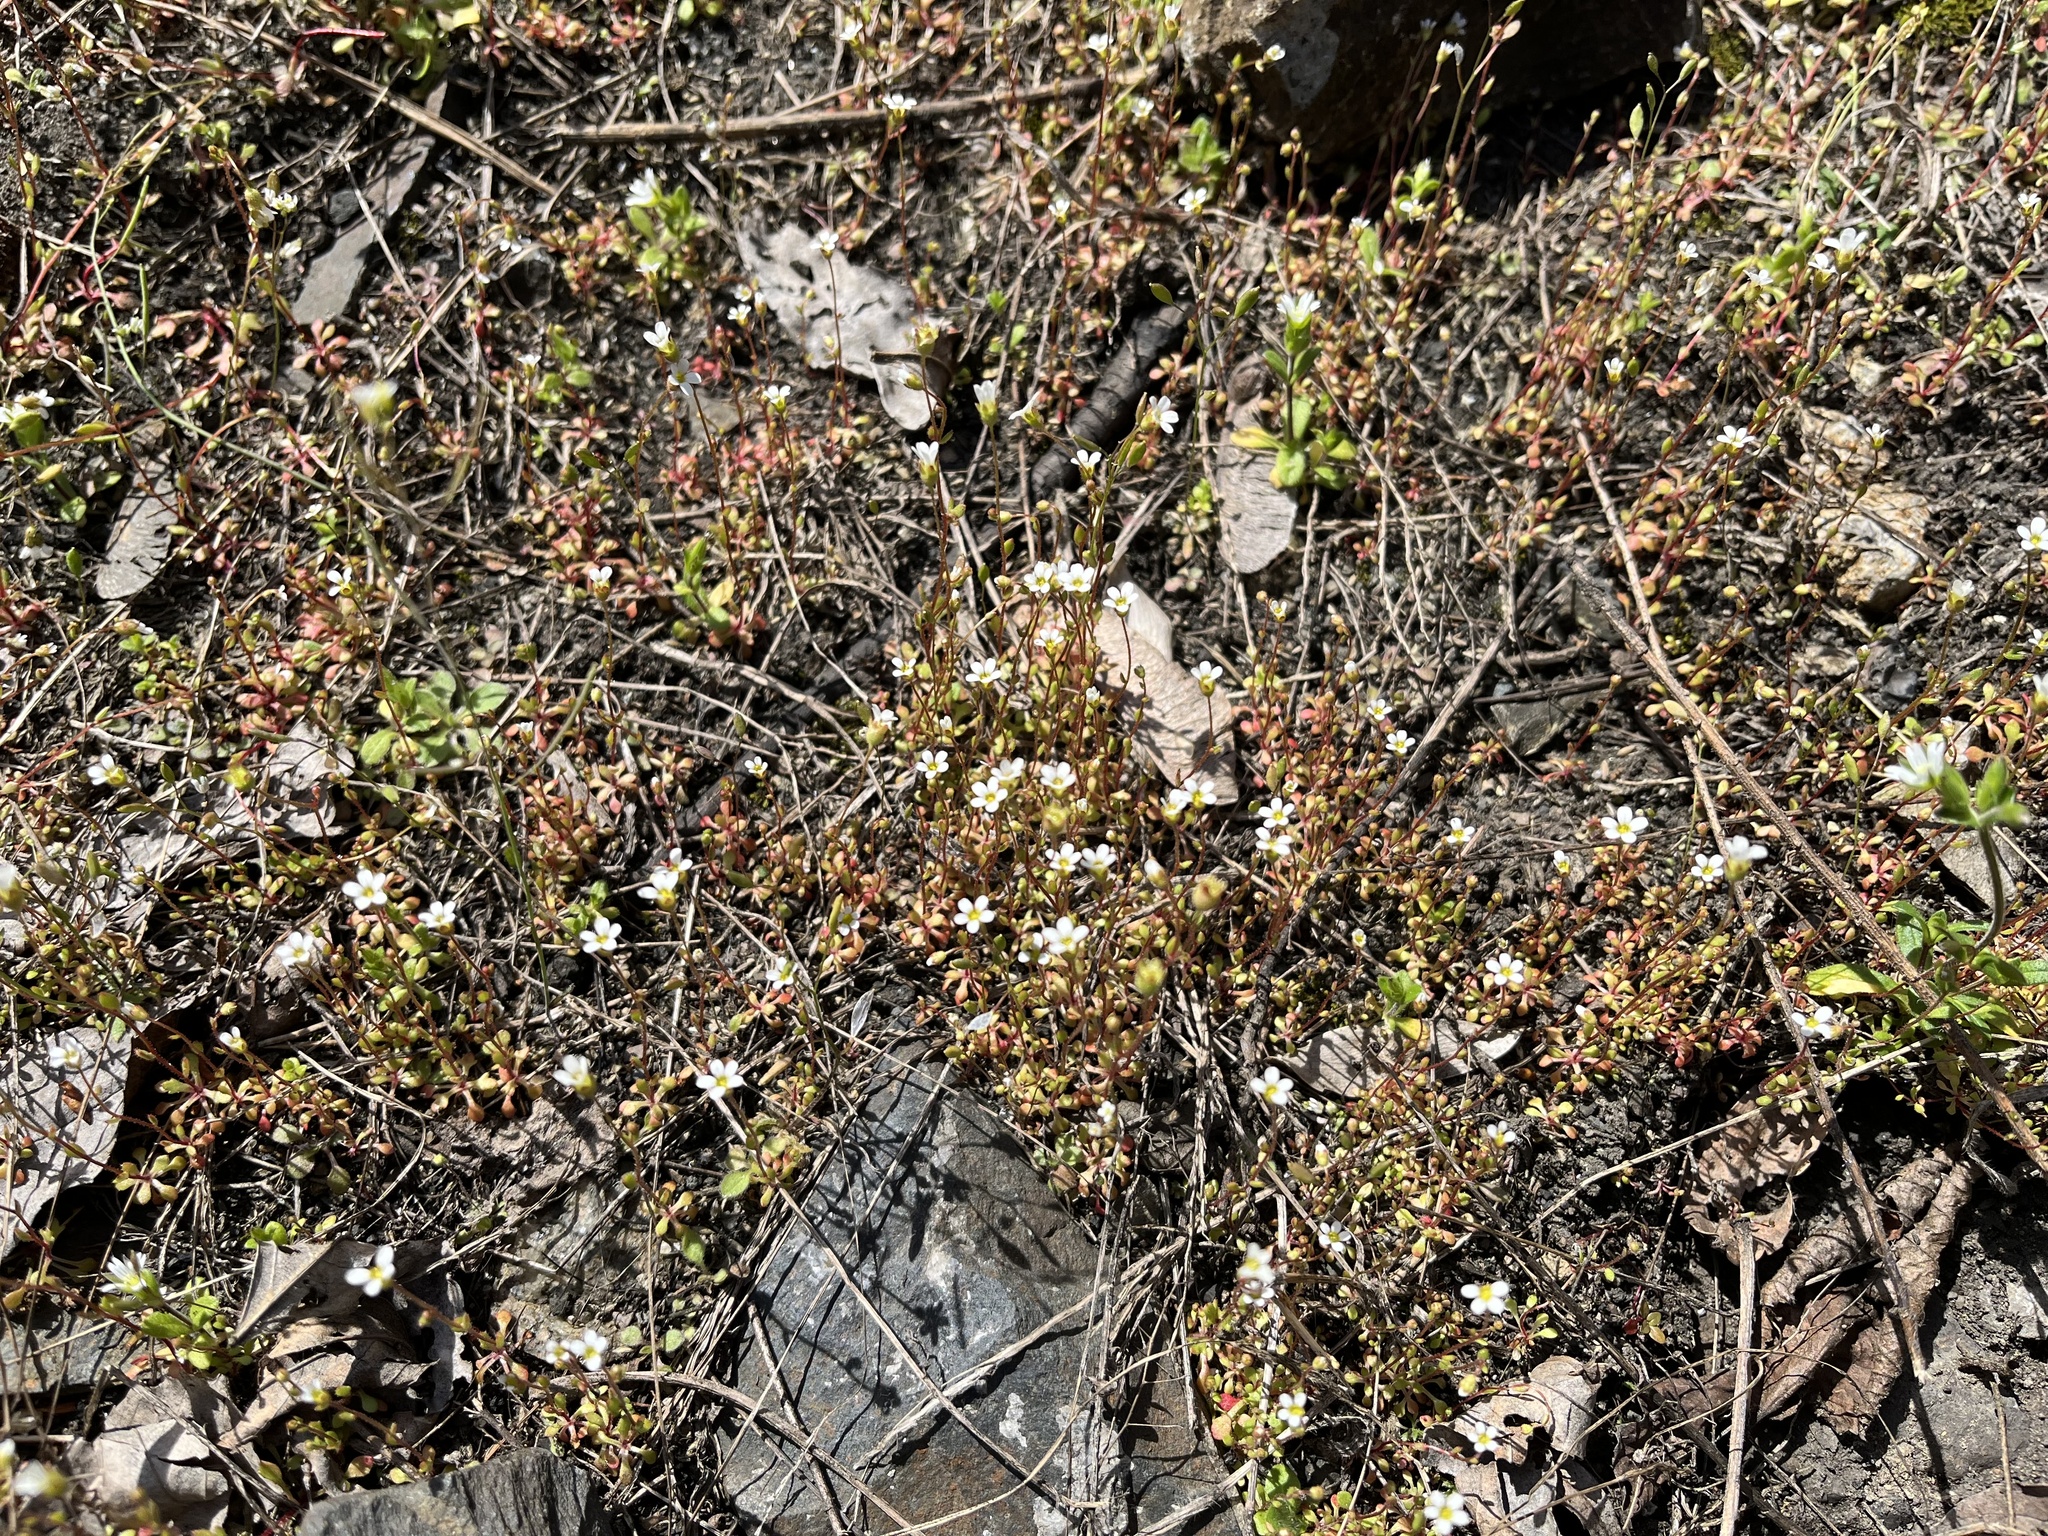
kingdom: Plantae
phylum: Tracheophyta
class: Magnoliopsida
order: Saxifragales
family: Saxifragaceae
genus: Saxifraga
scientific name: Saxifraga tridactylites
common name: Rue-leaved saxifrage
